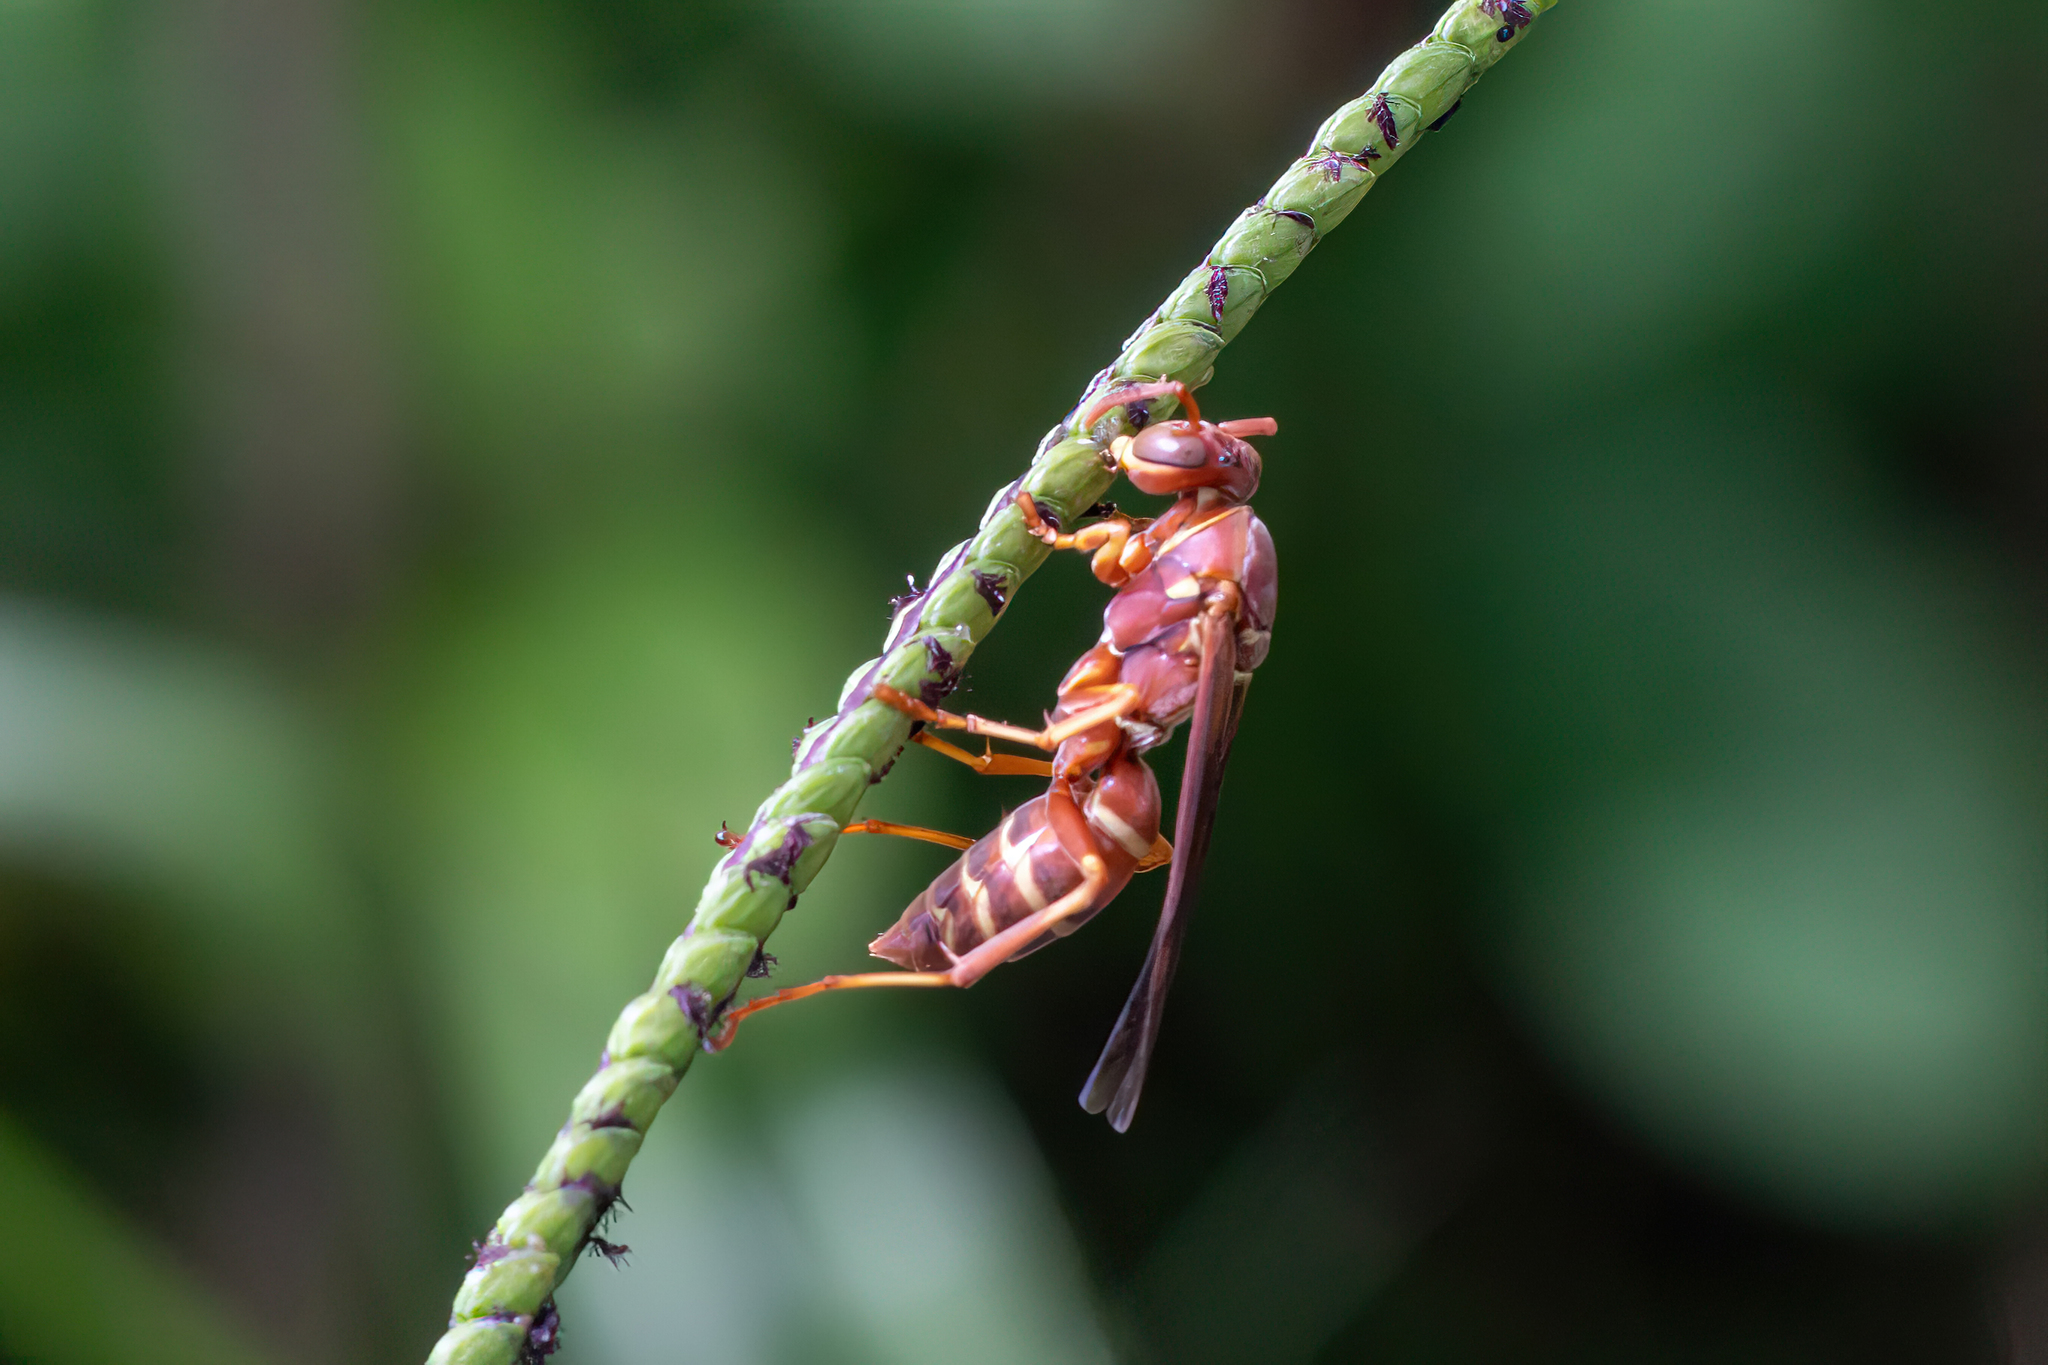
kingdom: Animalia
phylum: Arthropoda
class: Insecta
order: Hymenoptera
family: Eumenidae
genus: Polistes
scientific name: Polistes bellicosus
